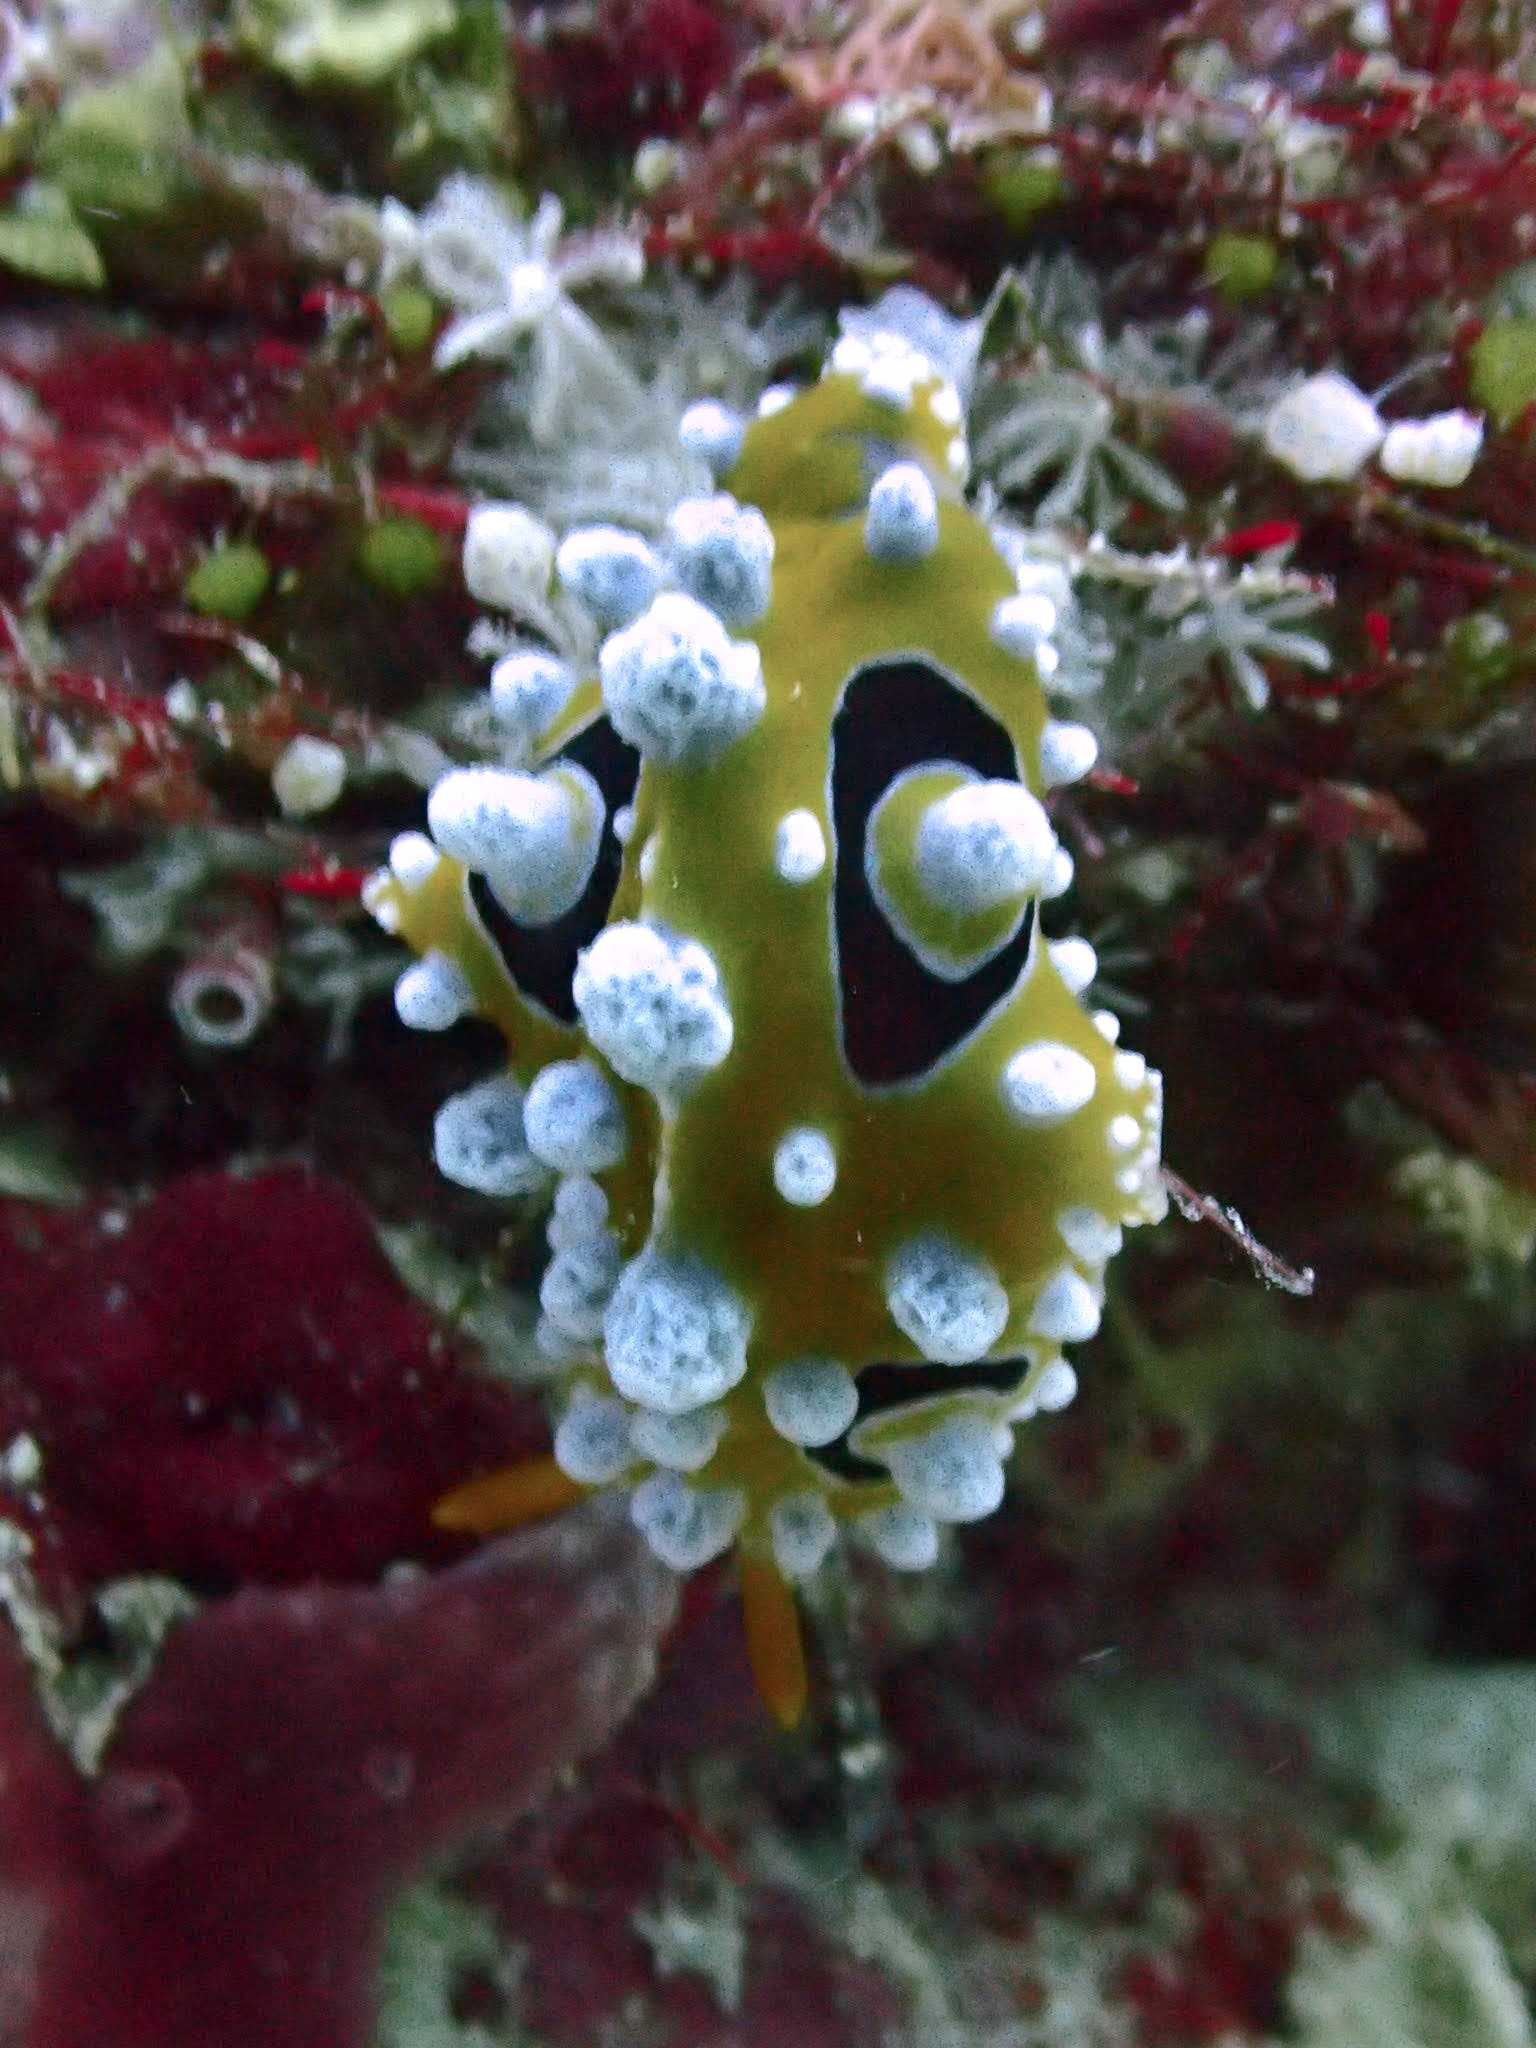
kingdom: Animalia
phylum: Mollusca
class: Gastropoda
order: Nudibranchia
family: Phyllidiidae
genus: Phyllidia
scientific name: Phyllidia ocellata
